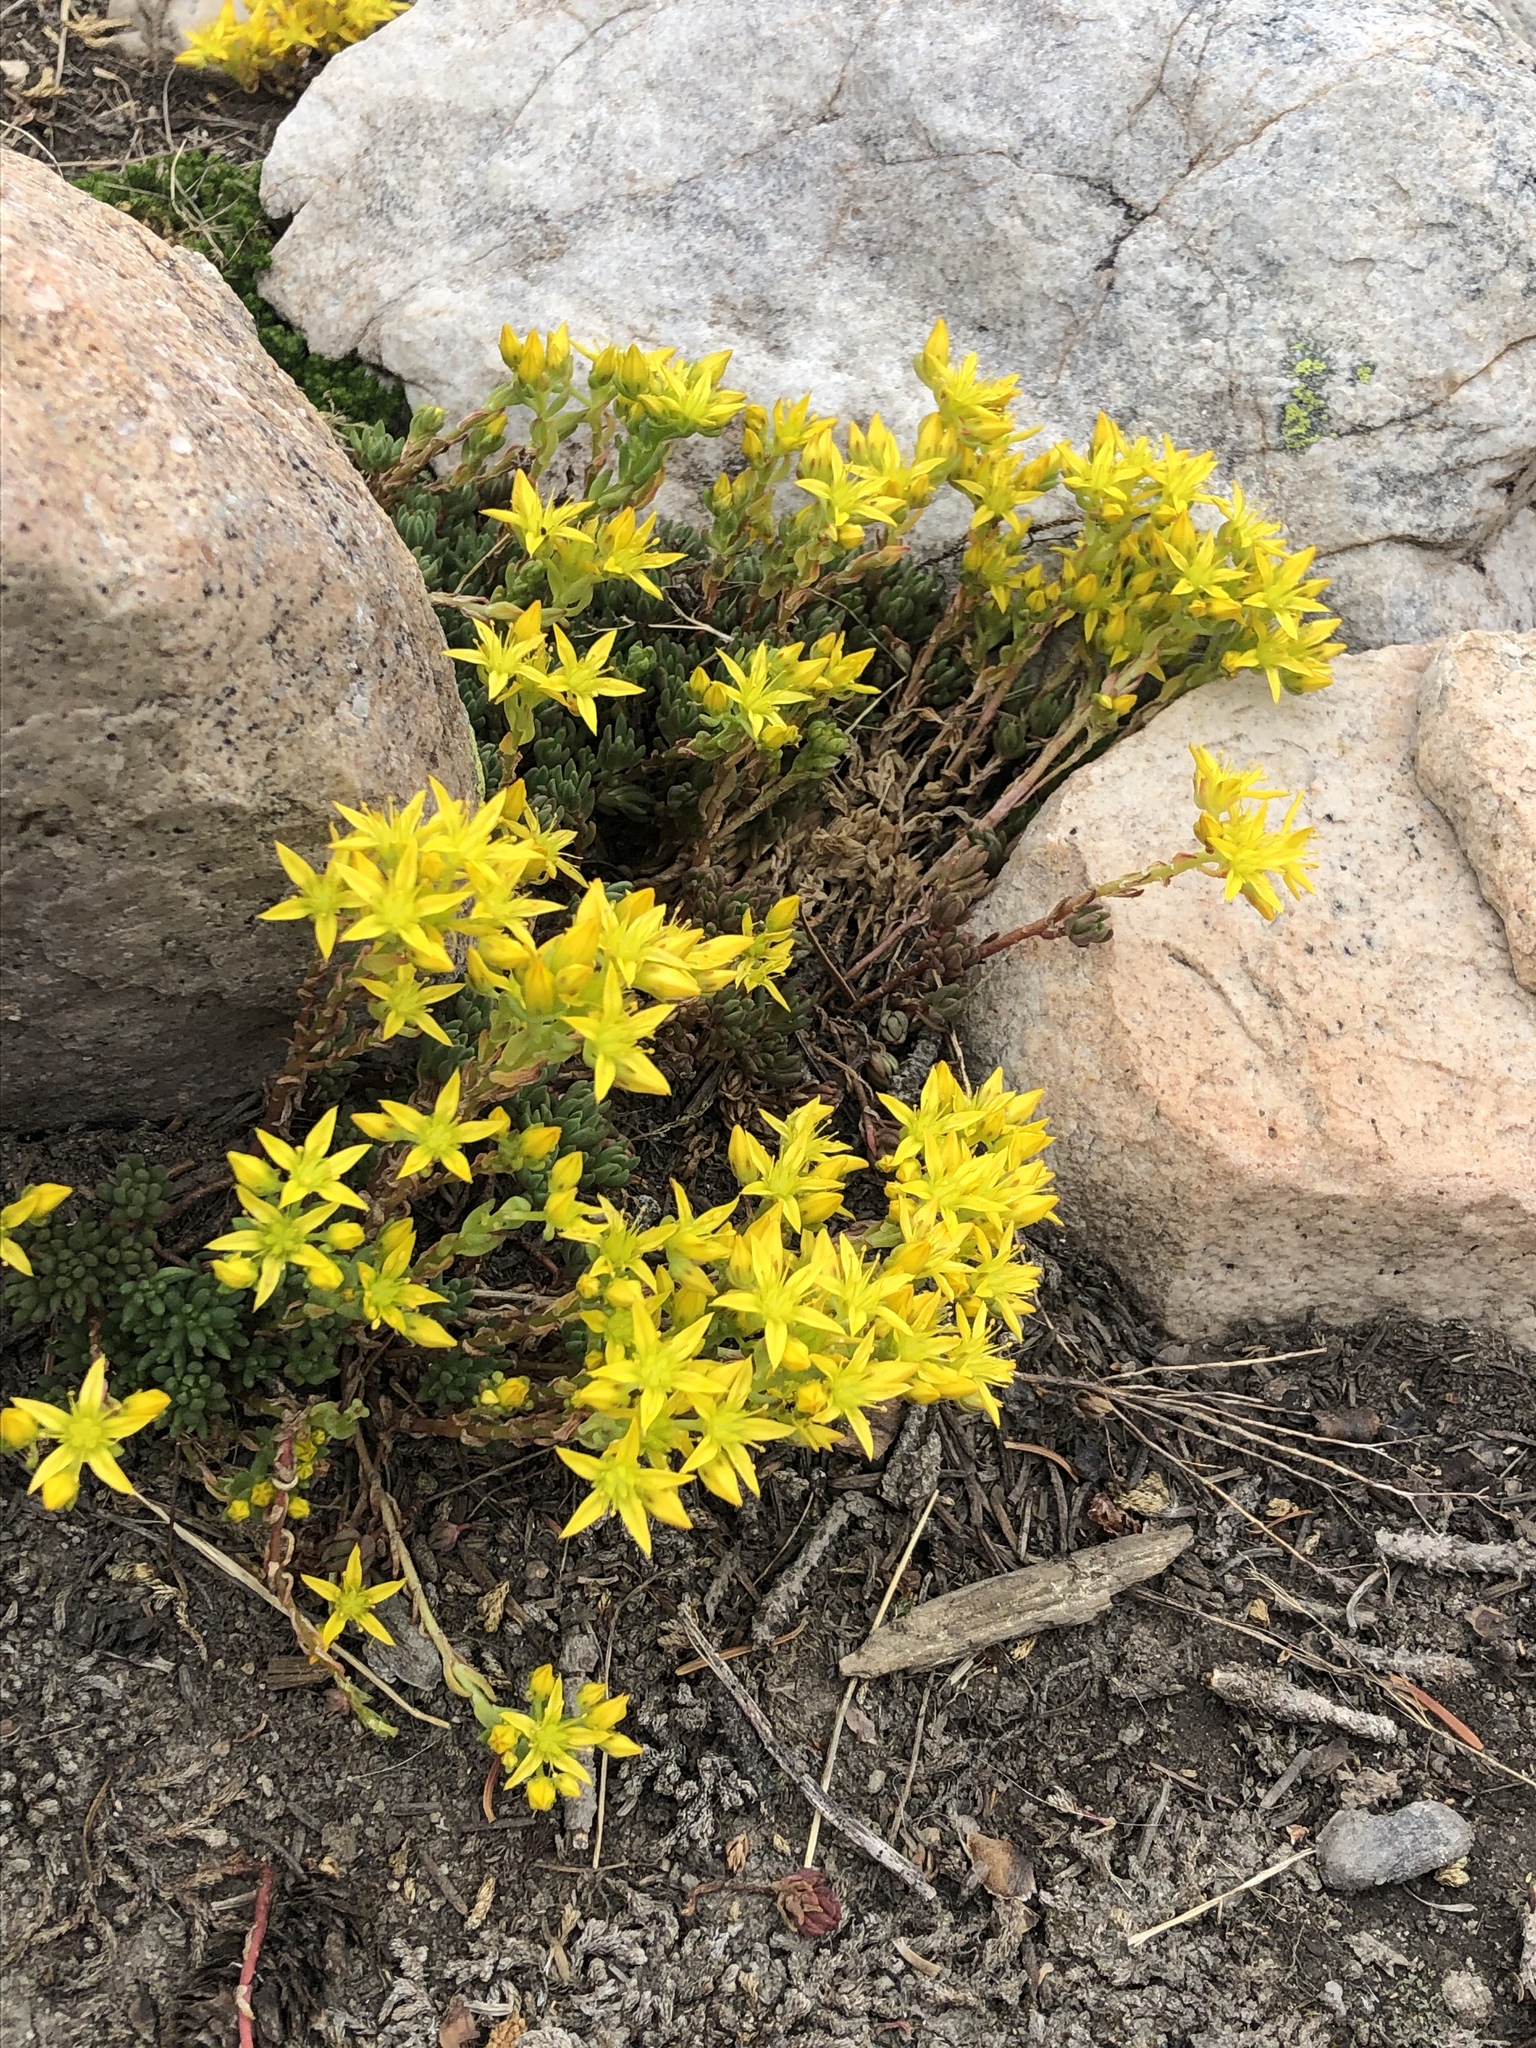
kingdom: Plantae
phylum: Tracheophyta
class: Magnoliopsida
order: Saxifragales
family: Crassulaceae
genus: Sedum
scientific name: Sedum lanceolatum
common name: Common stonecrop
